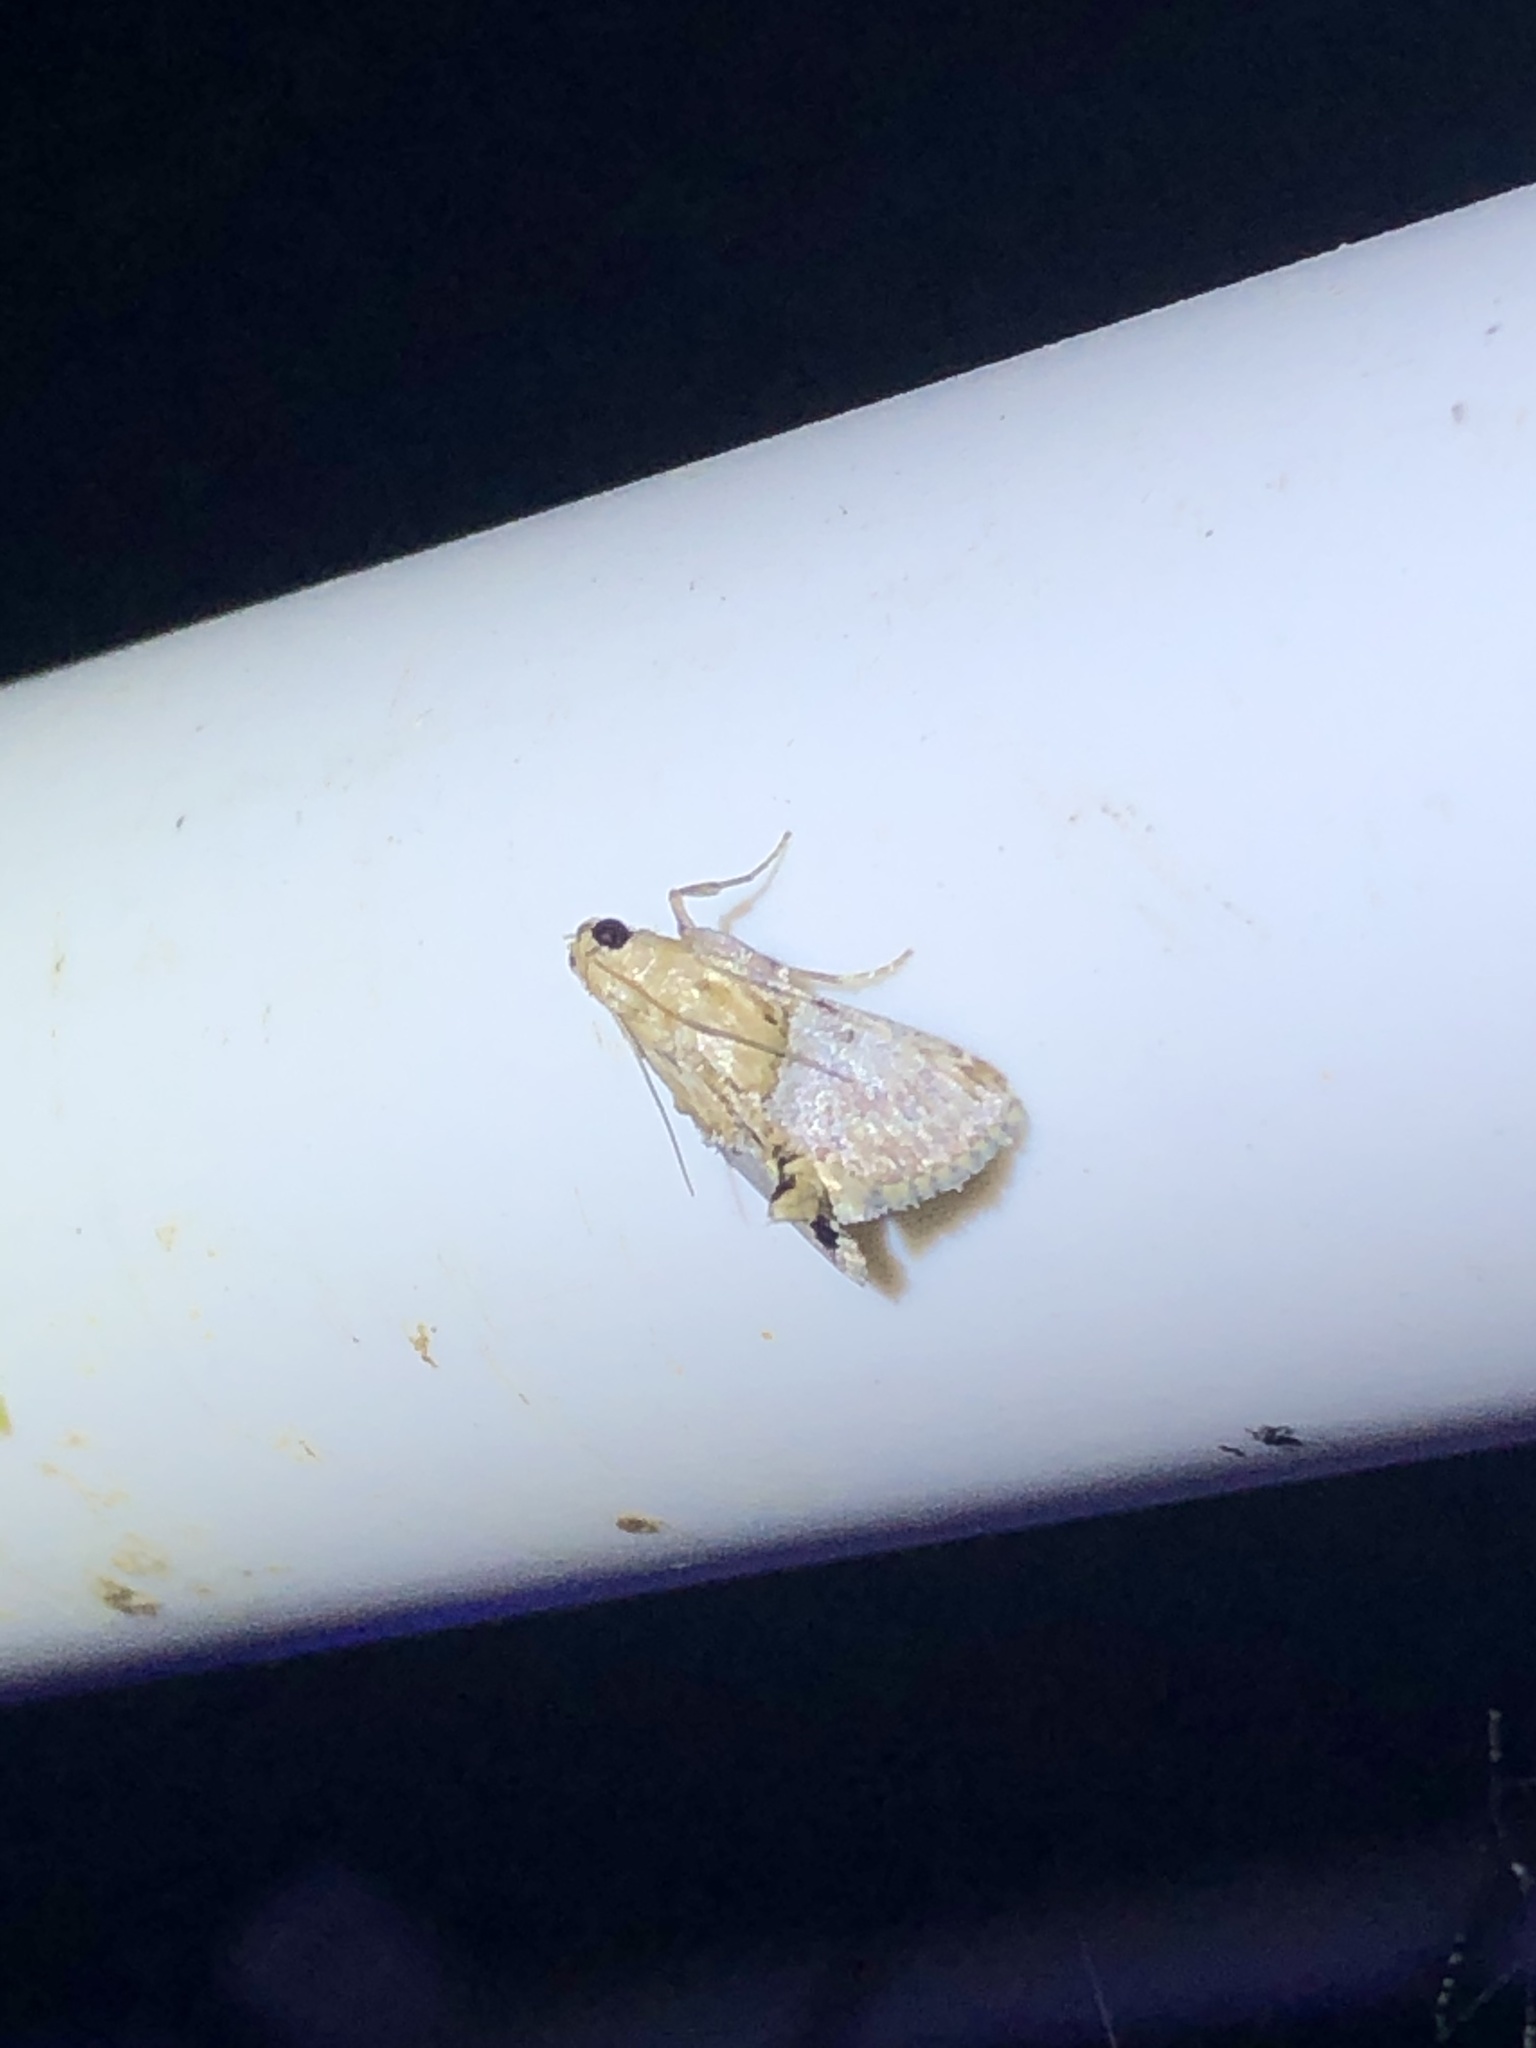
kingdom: Animalia
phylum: Arthropoda
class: Insecta
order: Lepidoptera
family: Pyralidae
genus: Cacozelia
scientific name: Cacozelia elegans
